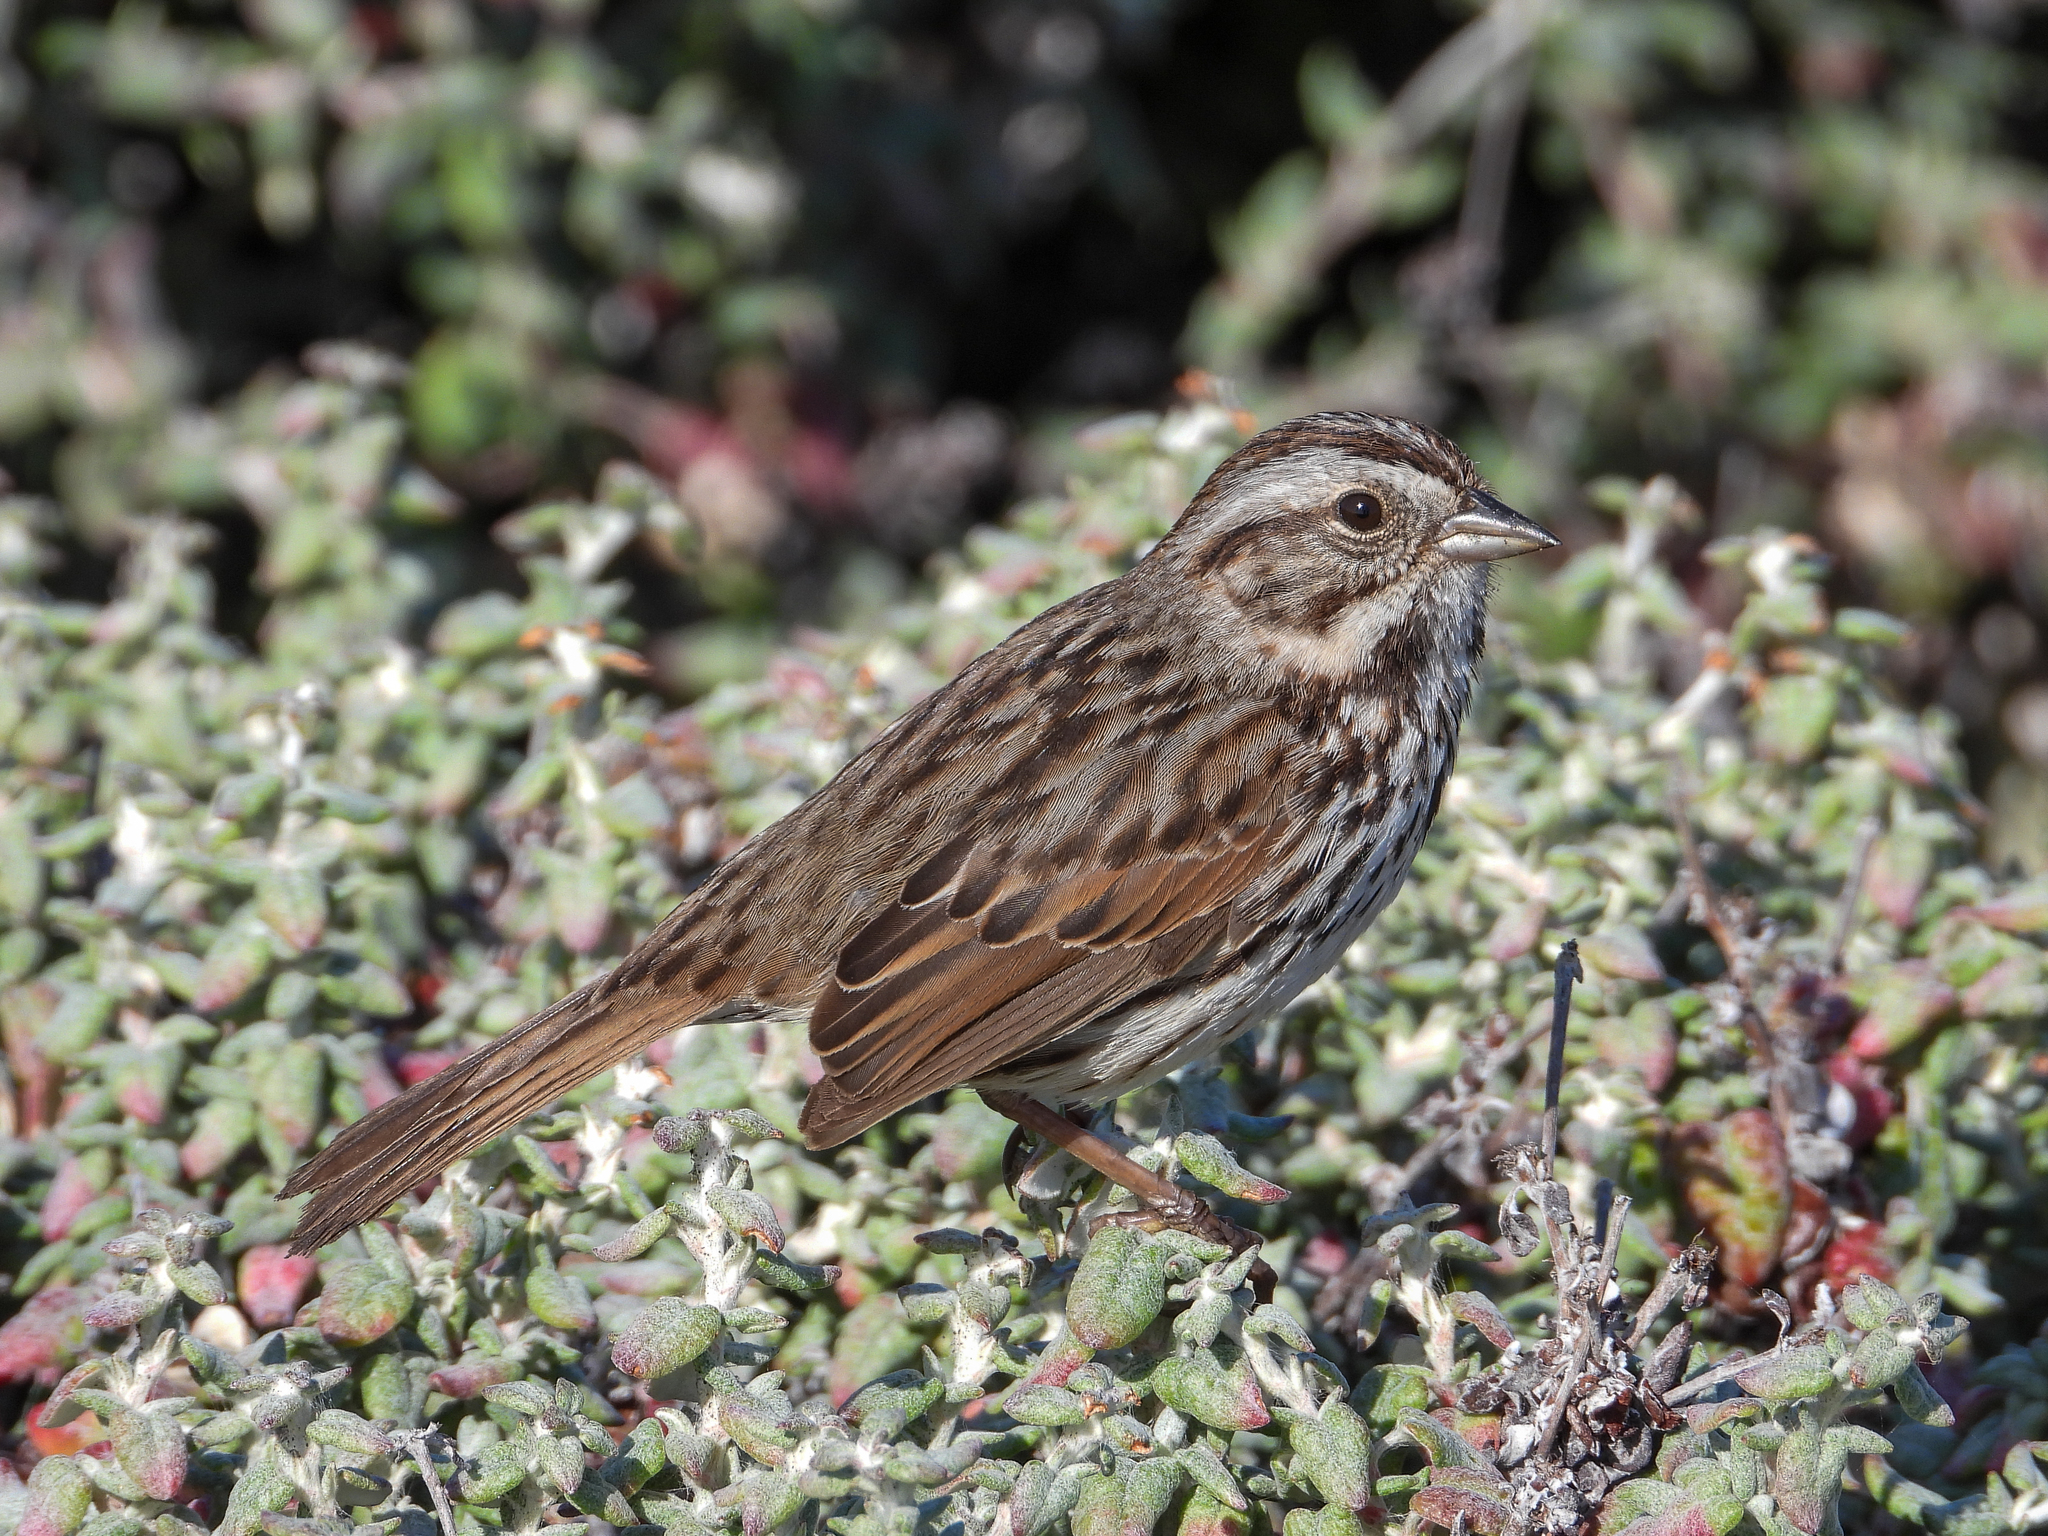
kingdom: Animalia
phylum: Chordata
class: Aves
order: Passeriformes
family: Passerellidae
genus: Melospiza
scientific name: Melospiza melodia
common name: Song sparrow
